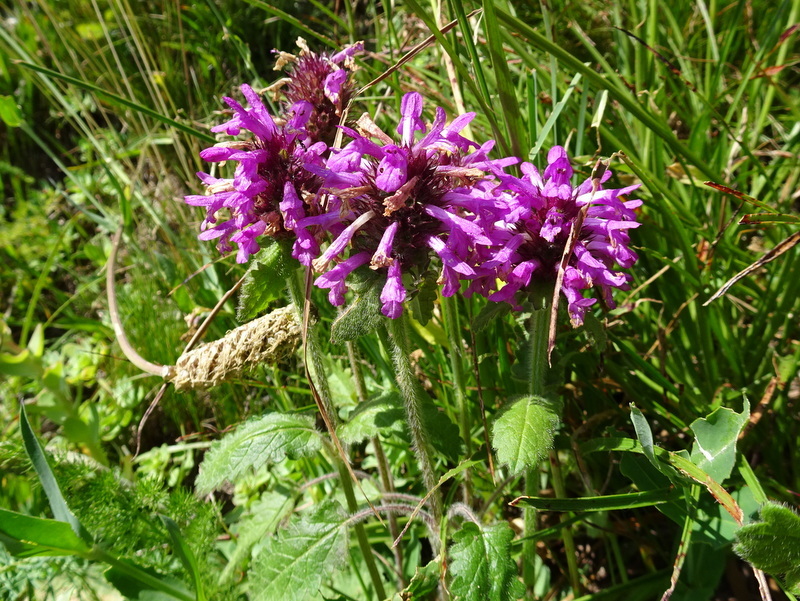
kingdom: Plantae
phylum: Tracheophyta
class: Magnoliopsida
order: Lamiales
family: Lamiaceae
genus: Betonica
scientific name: Betonica officinalis
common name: Bishop's-wort
